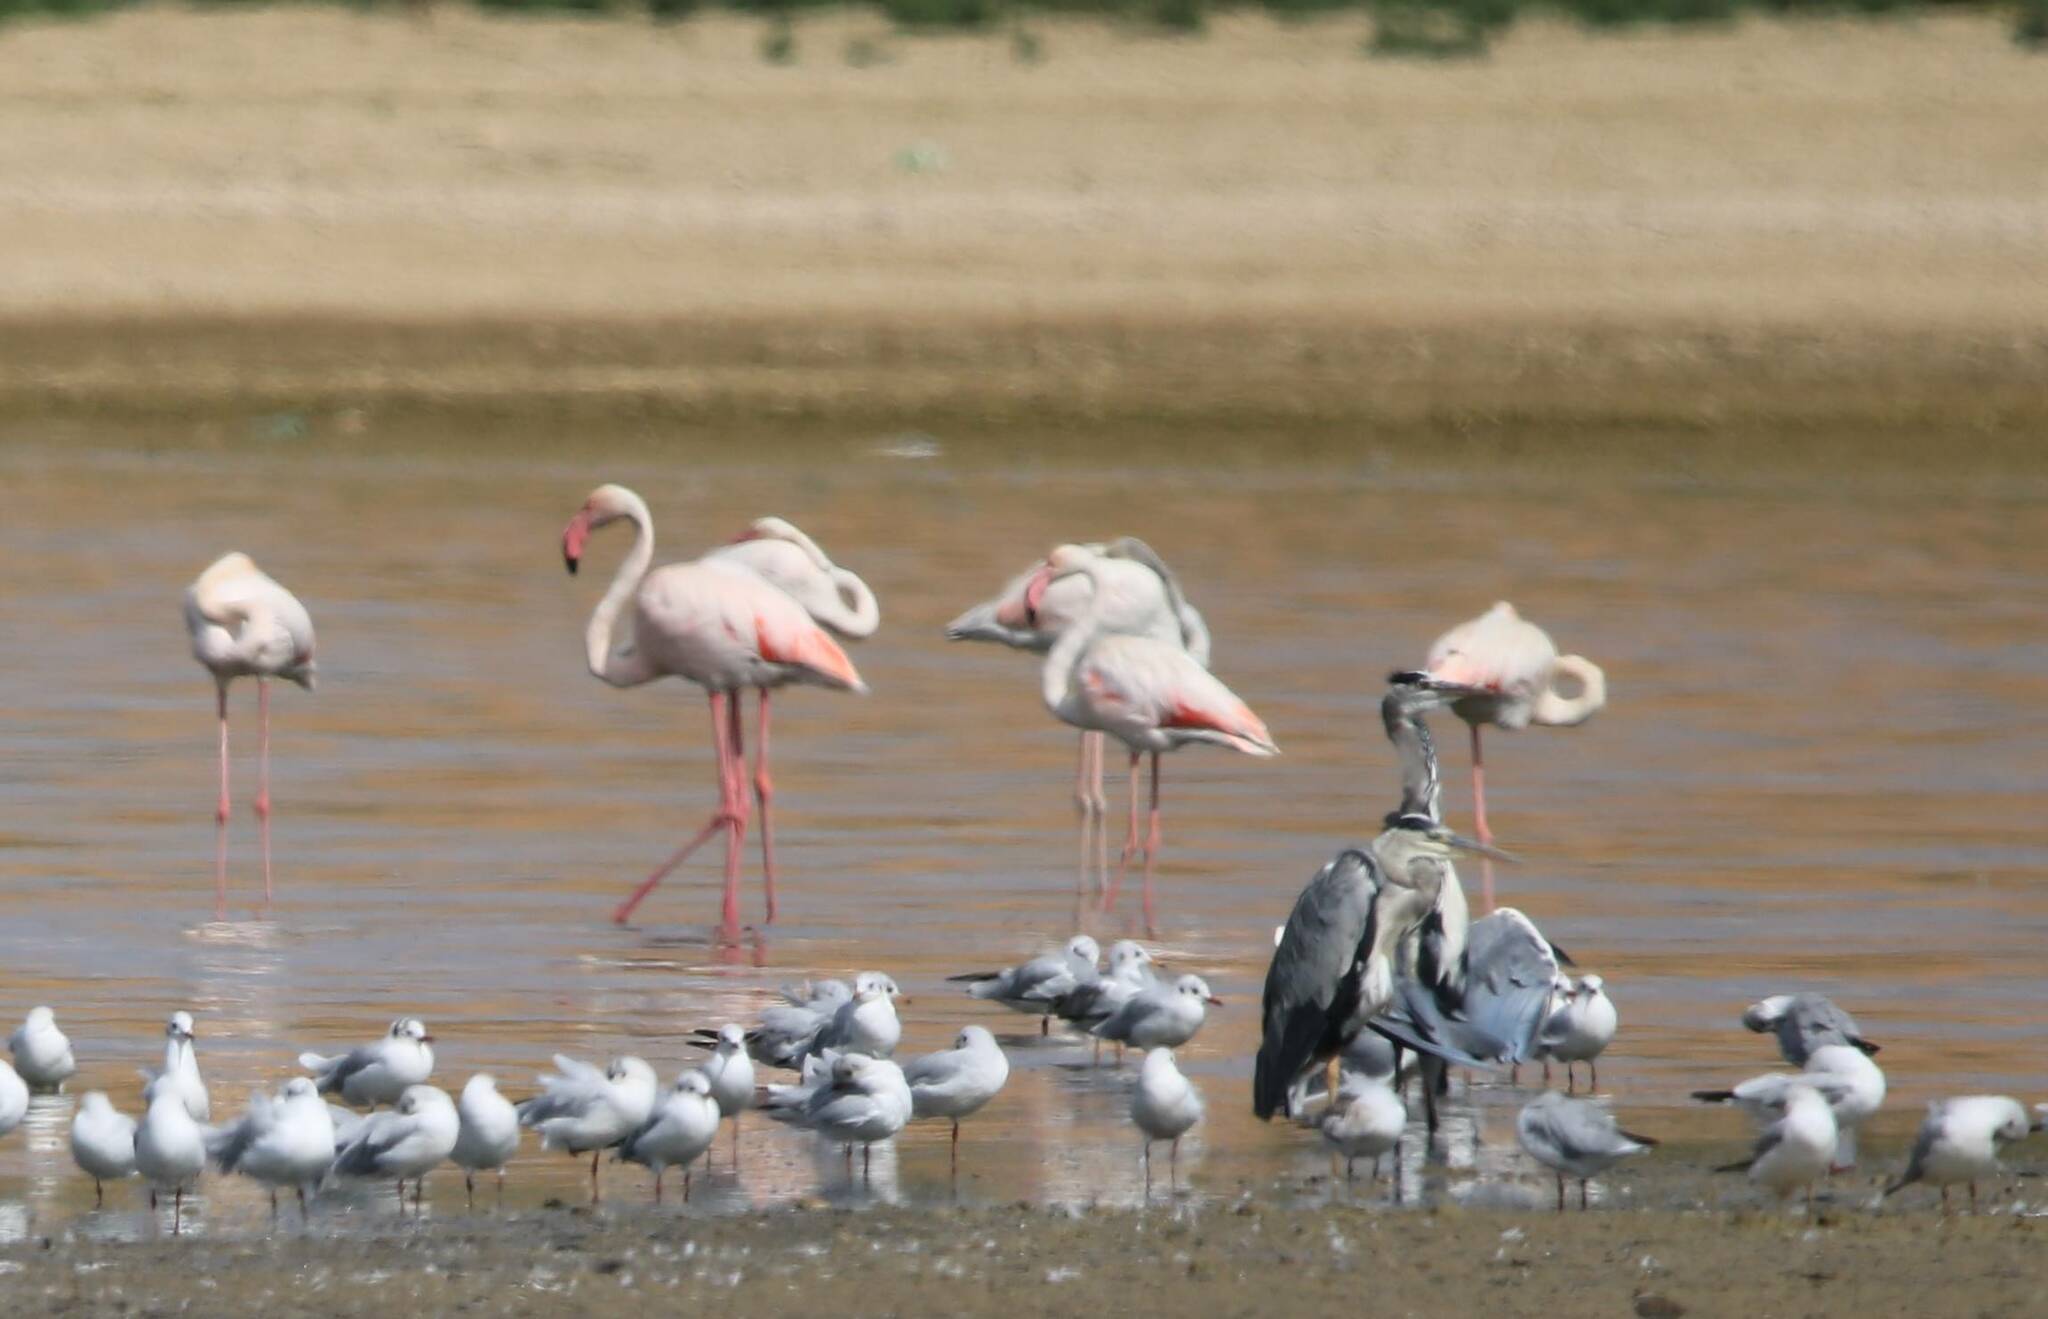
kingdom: Animalia
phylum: Chordata
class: Aves
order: Phoenicopteriformes
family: Phoenicopteridae
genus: Phoenicopterus
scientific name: Phoenicopterus roseus
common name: Greater flamingo
